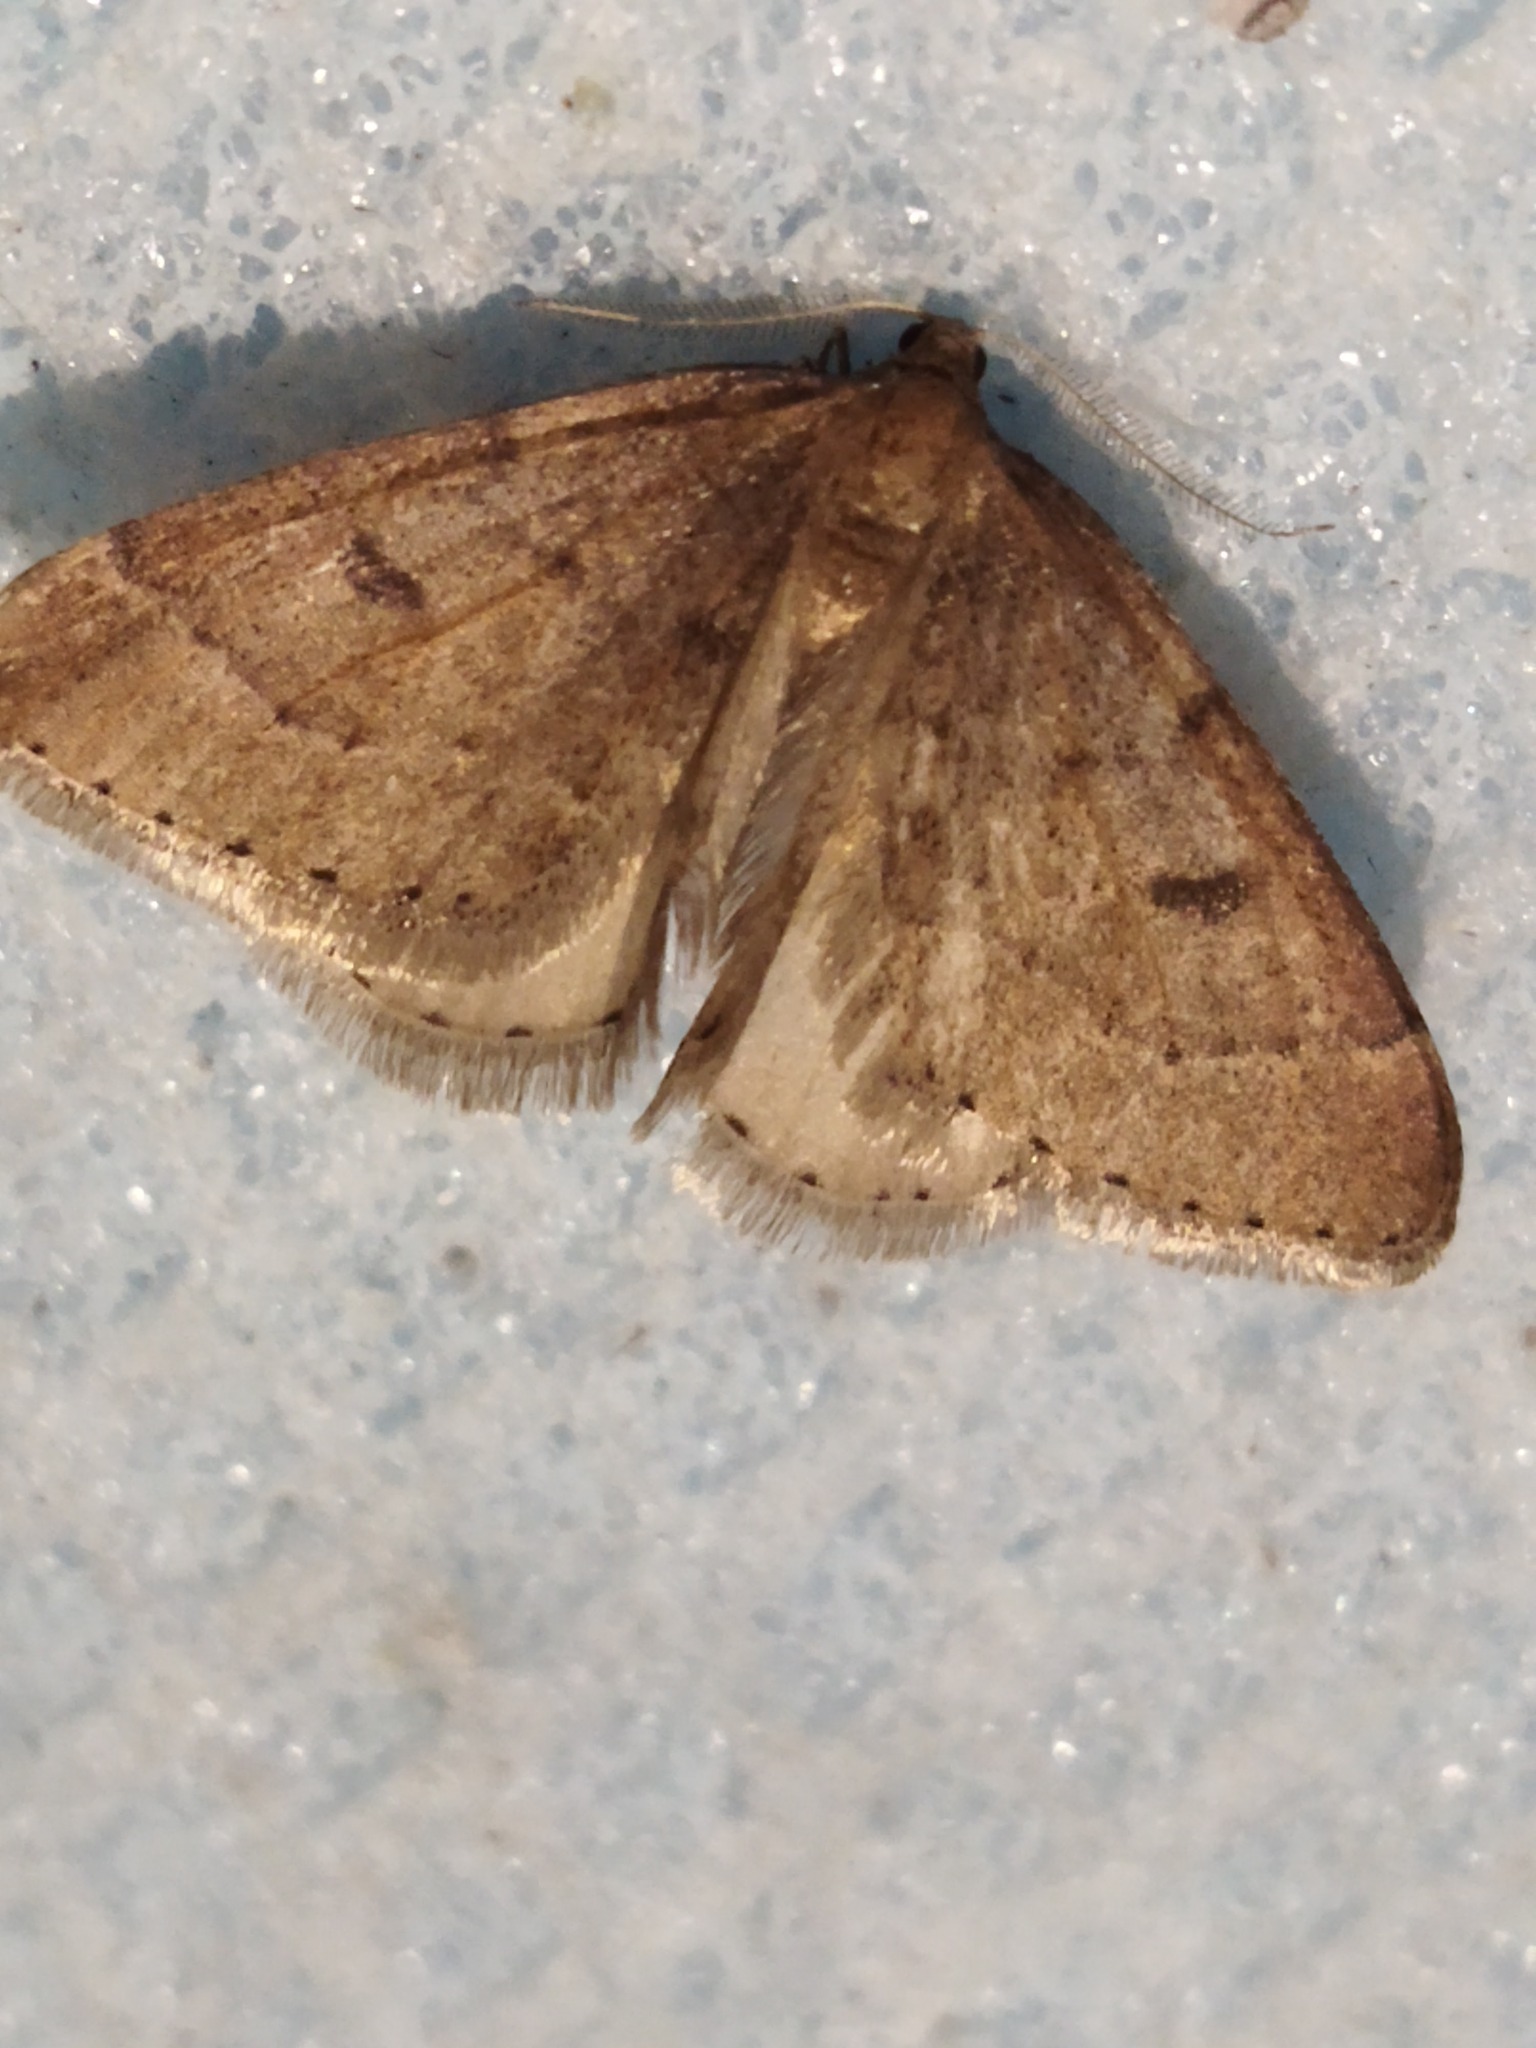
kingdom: Animalia
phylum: Arthropoda
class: Insecta
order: Lepidoptera
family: Geometridae
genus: Theria
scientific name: Theria rupicapraria
